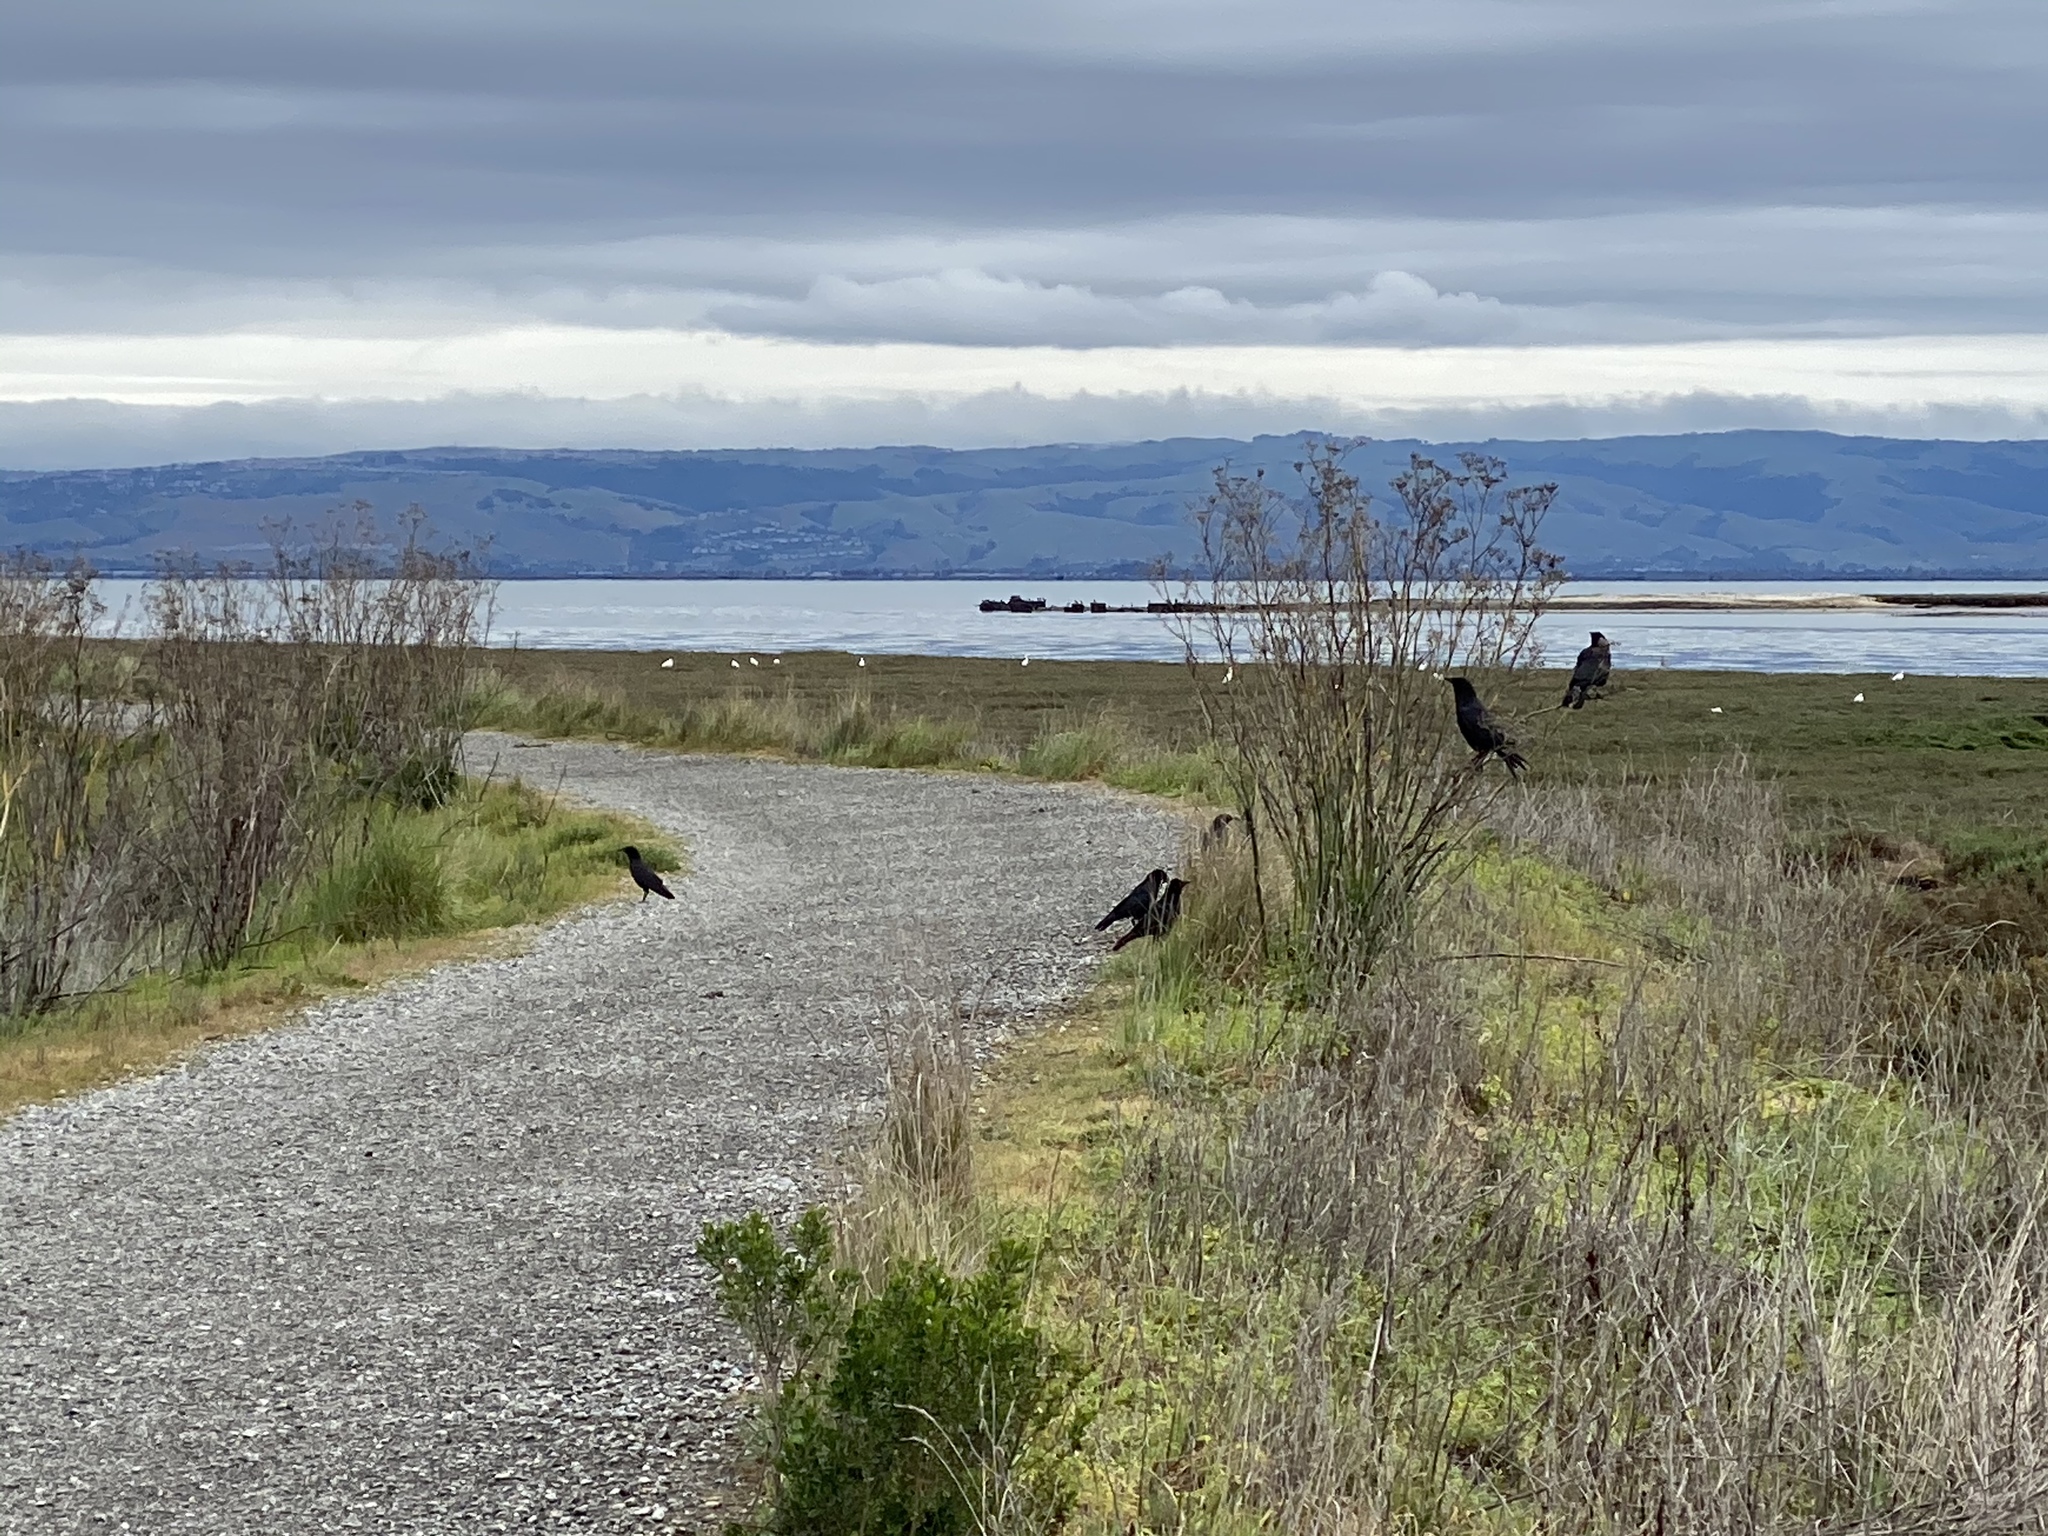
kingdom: Animalia
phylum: Chordata
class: Aves
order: Passeriformes
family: Corvidae
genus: Corvus
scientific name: Corvus brachyrhynchos
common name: American crow
